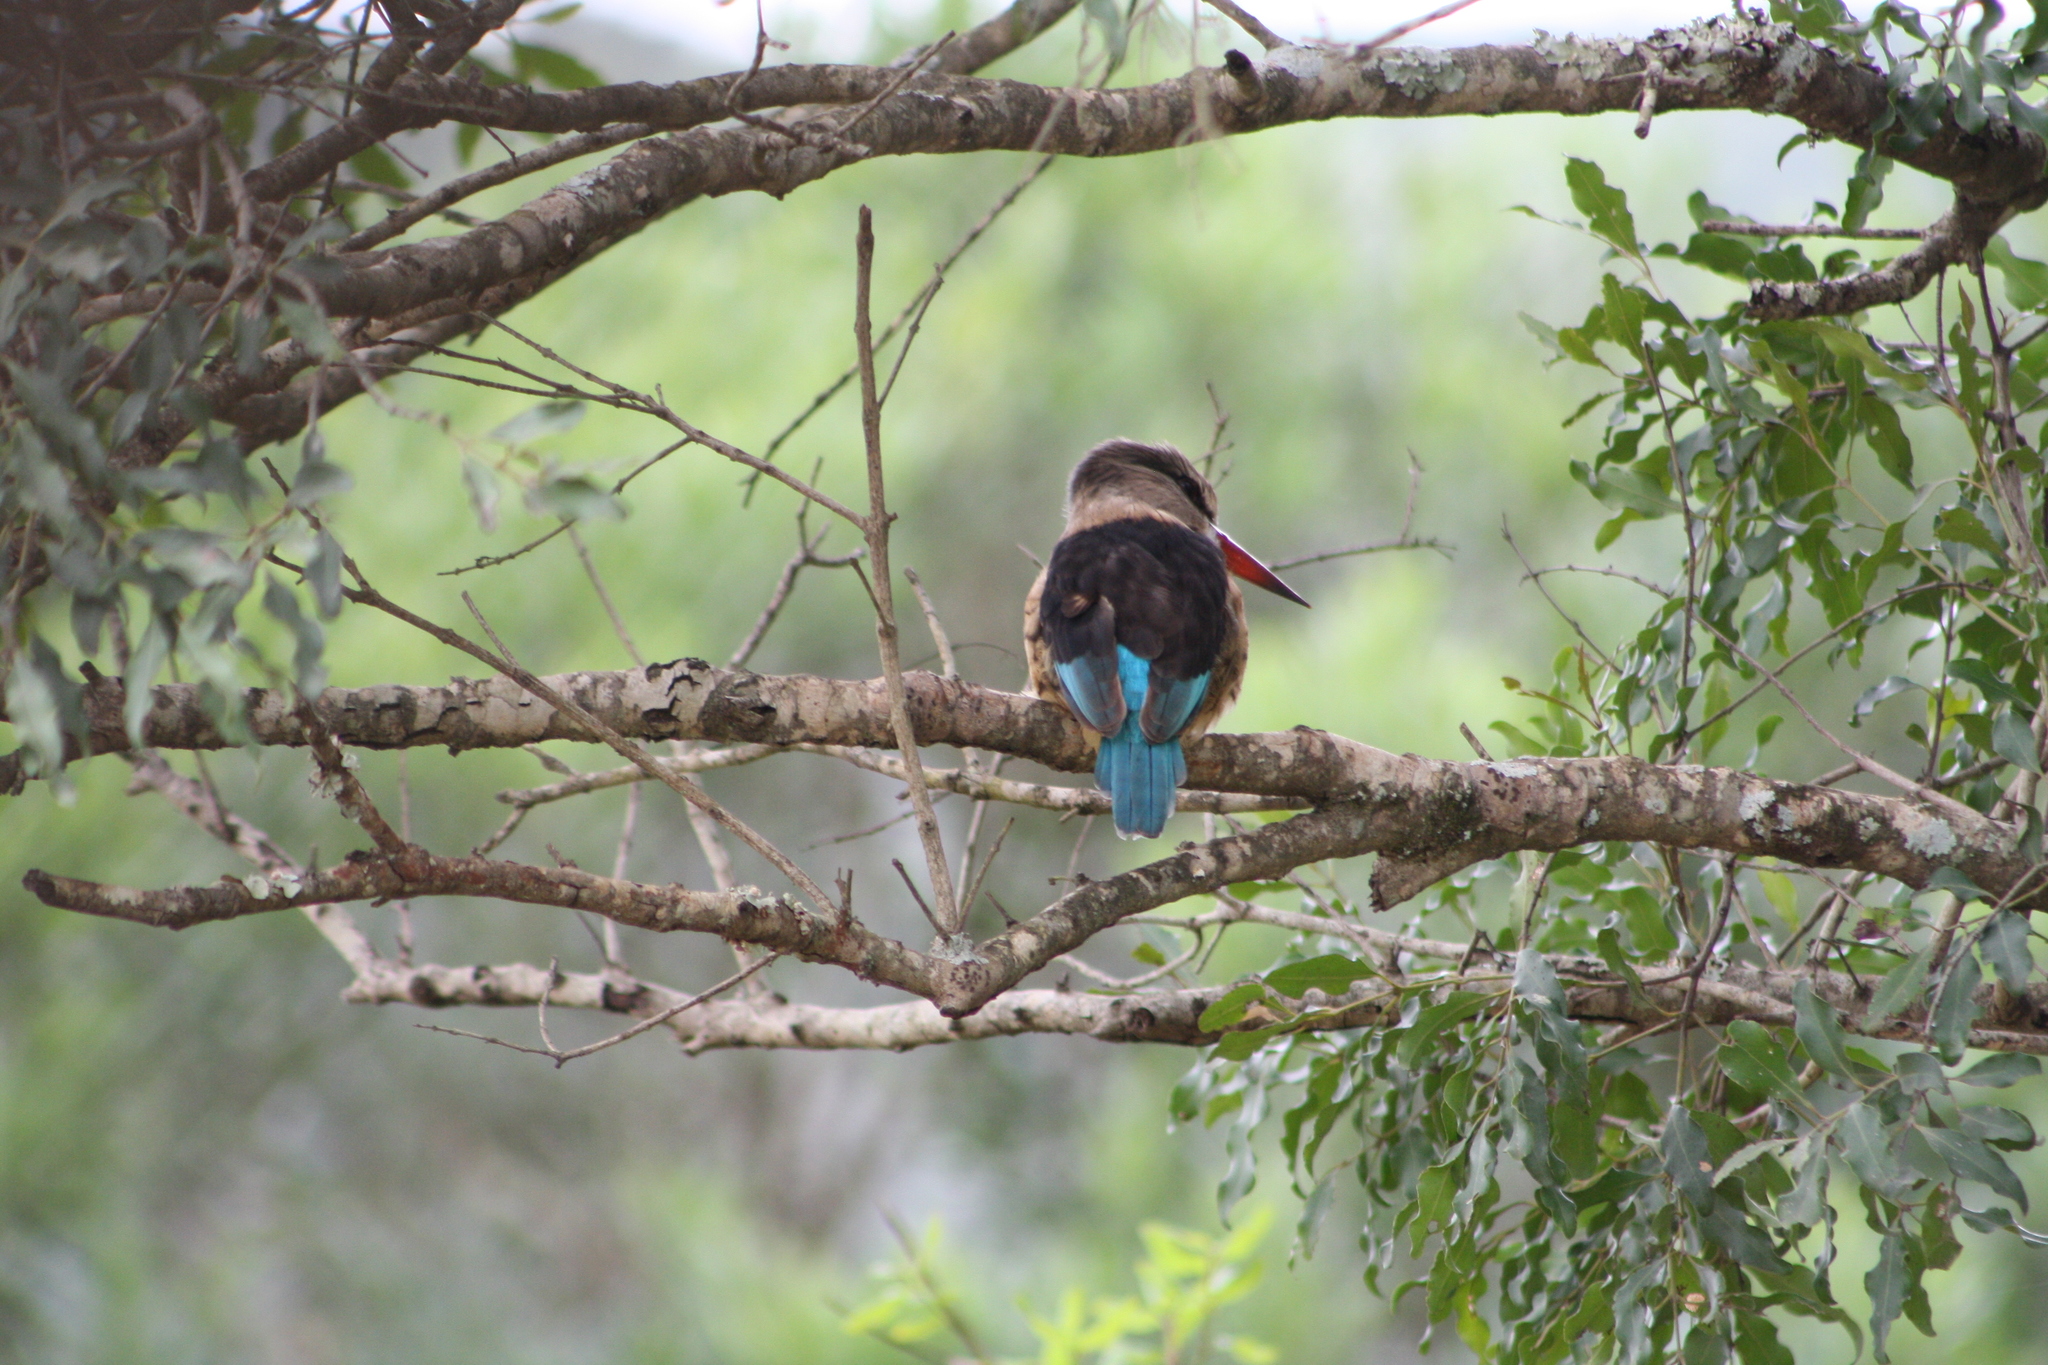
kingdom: Animalia
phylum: Chordata
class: Aves
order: Coraciiformes
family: Alcedinidae
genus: Halcyon
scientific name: Halcyon albiventris
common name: Brown-hooded kingfisher
